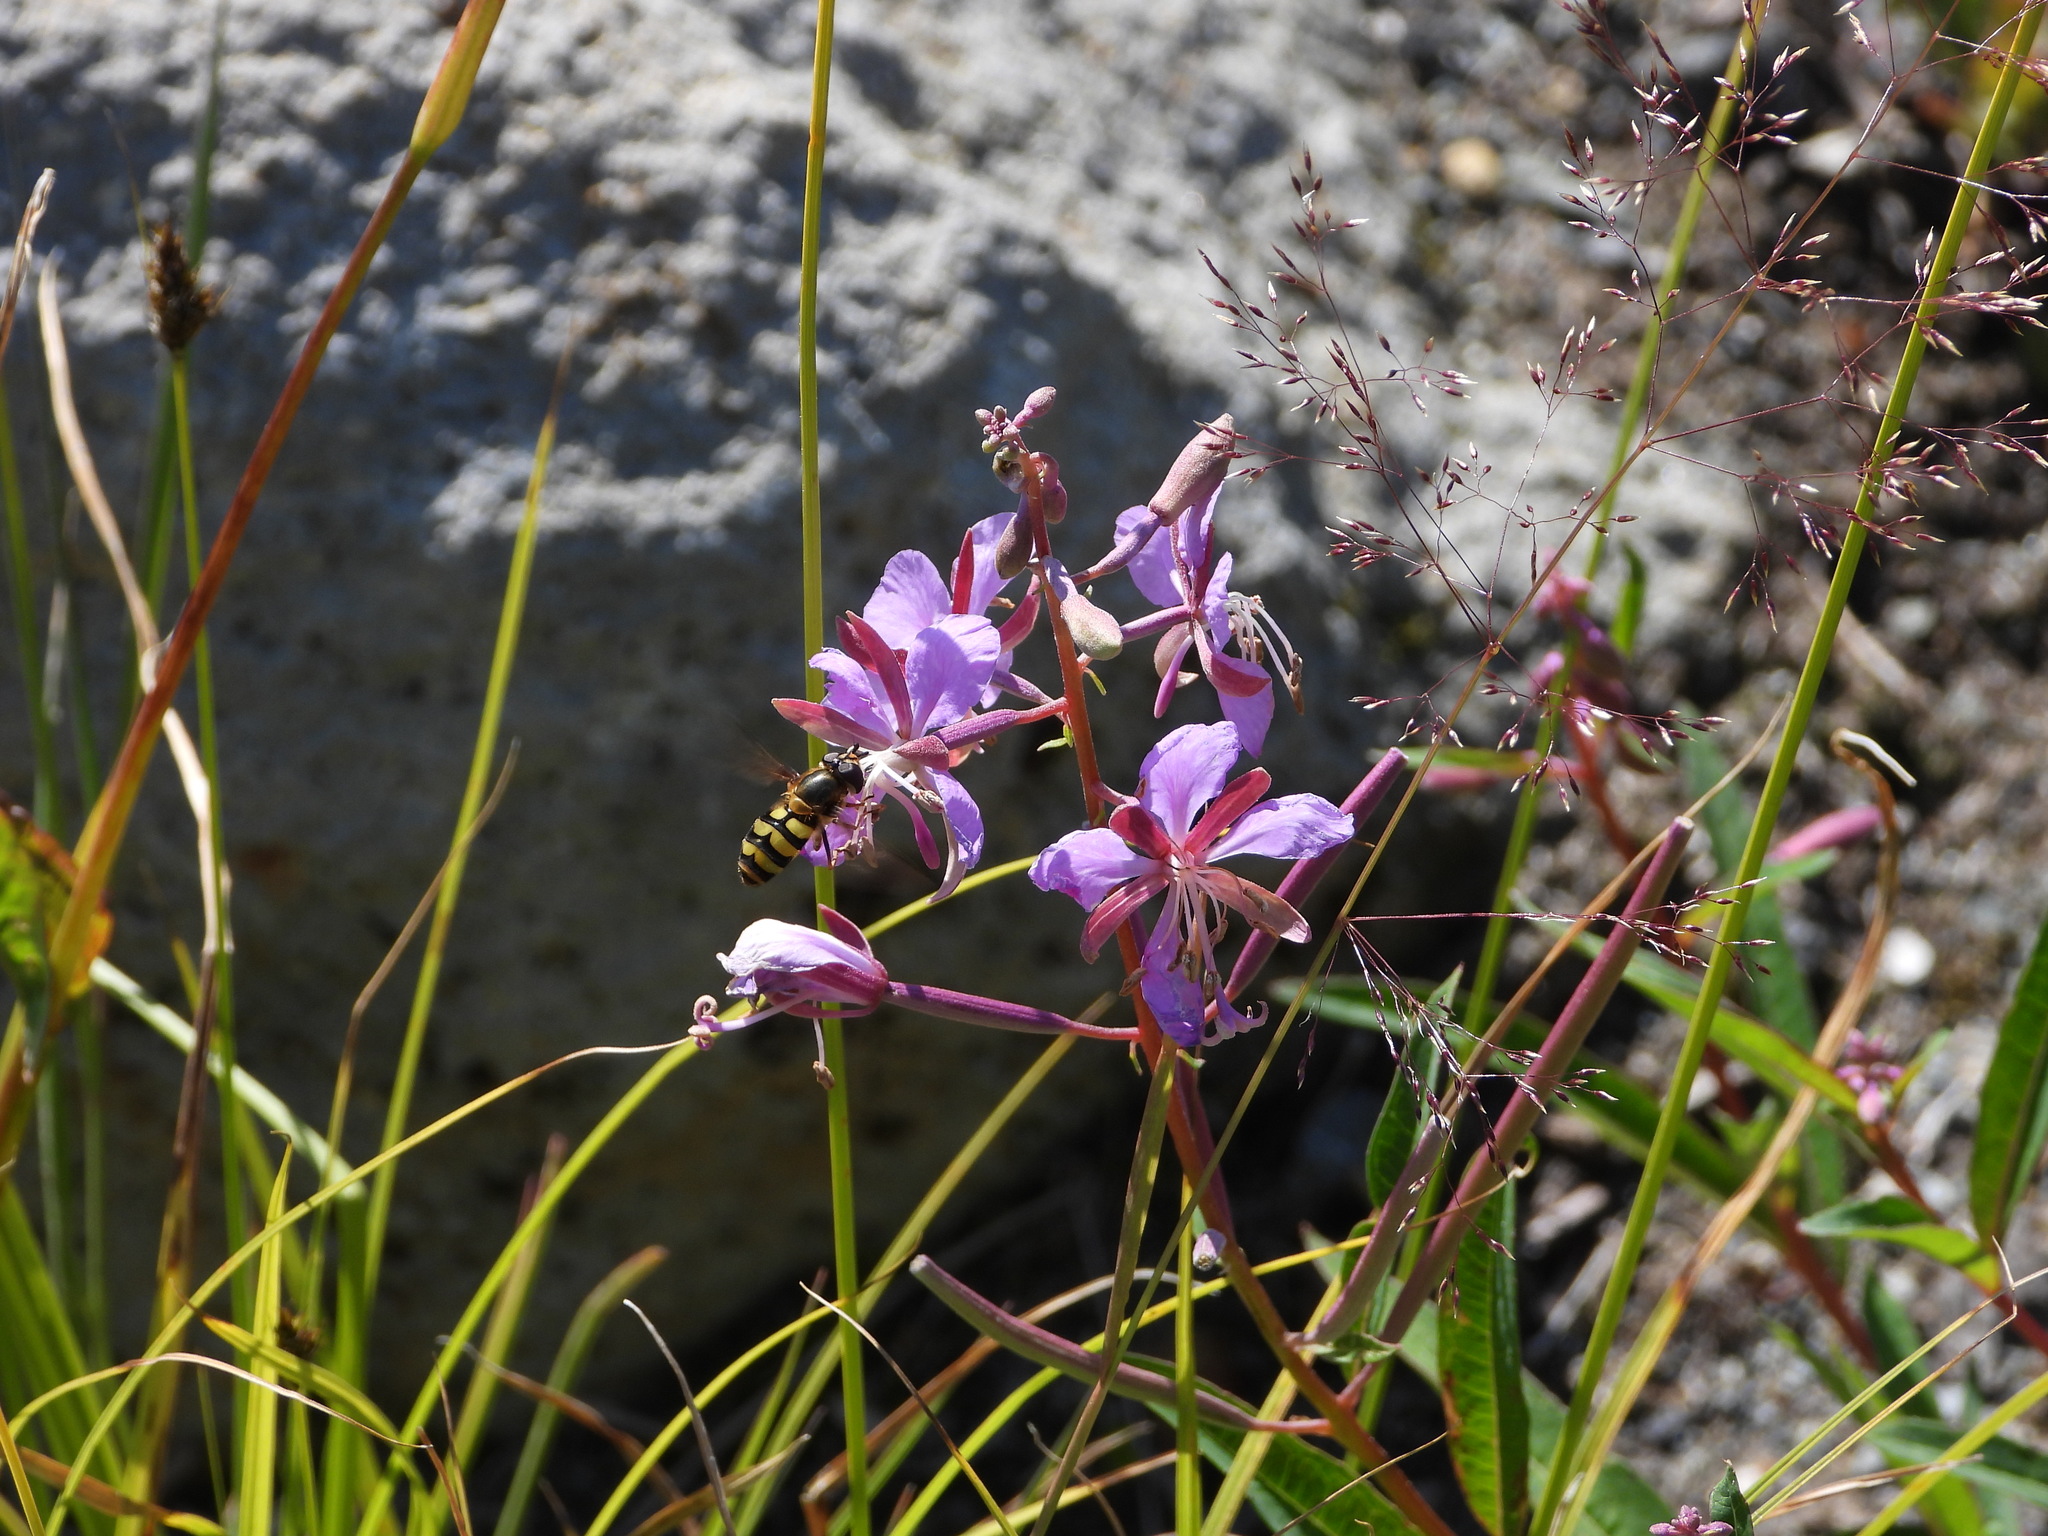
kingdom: Plantae
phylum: Tracheophyta
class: Magnoliopsida
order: Myrtales
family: Onagraceae
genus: Chamaenerion
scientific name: Chamaenerion angustifolium
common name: Fireweed
